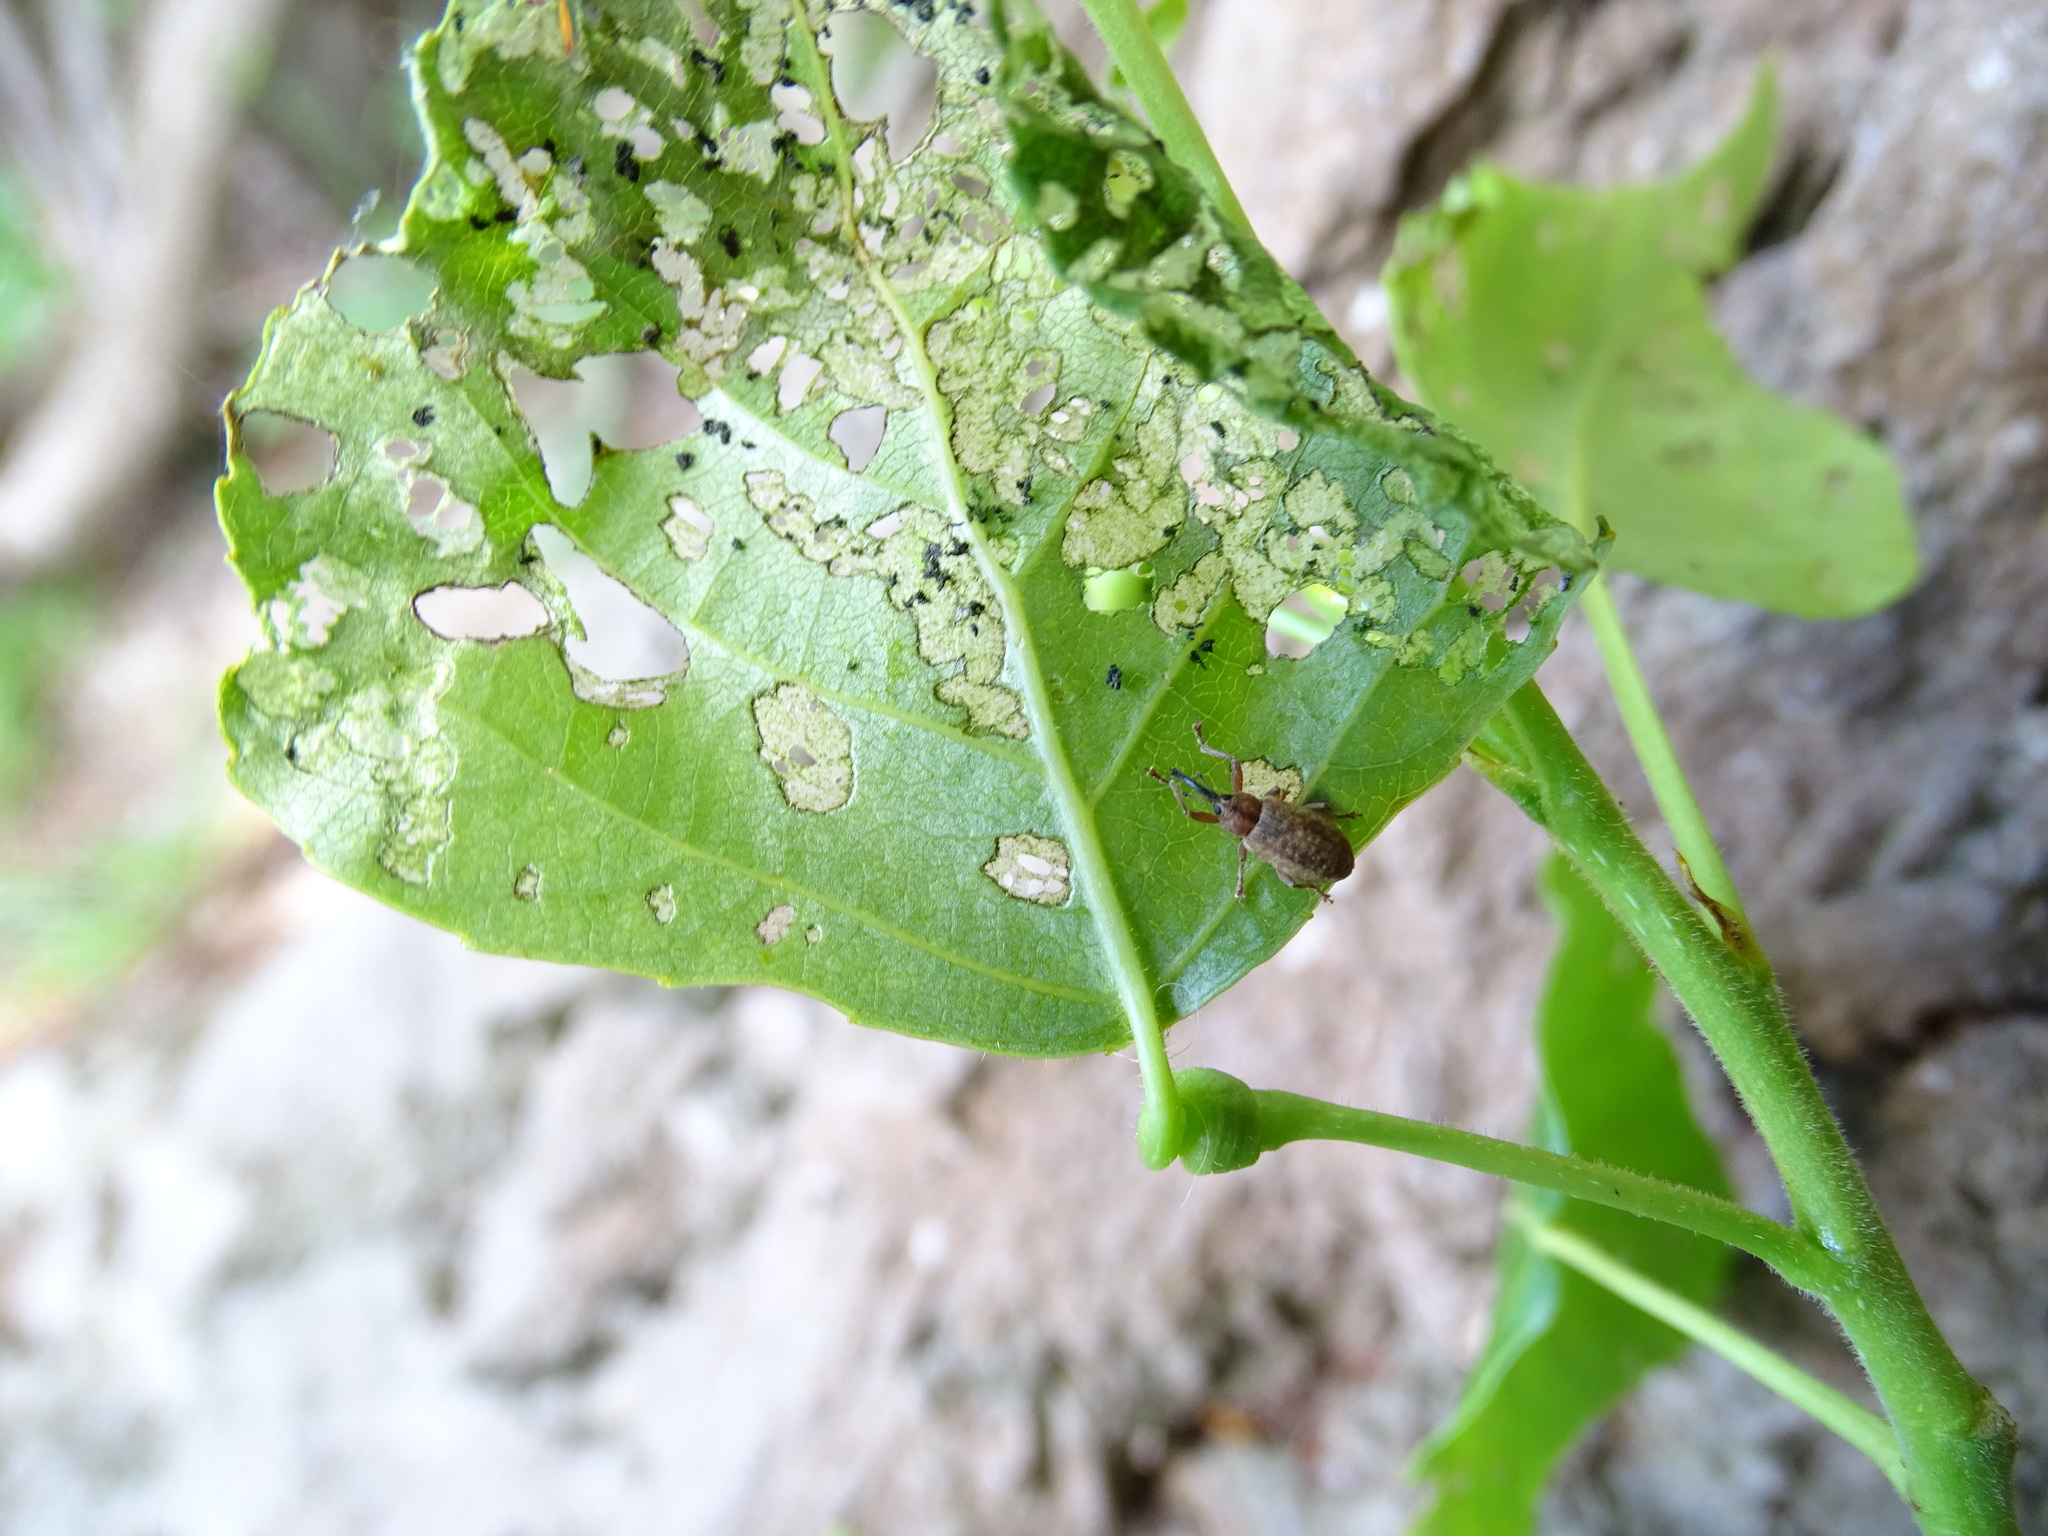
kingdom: Animalia
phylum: Arthropoda
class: Insecta
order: Coleoptera
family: Curculionidae
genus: Dorytomus
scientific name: Dorytomus longimanus
